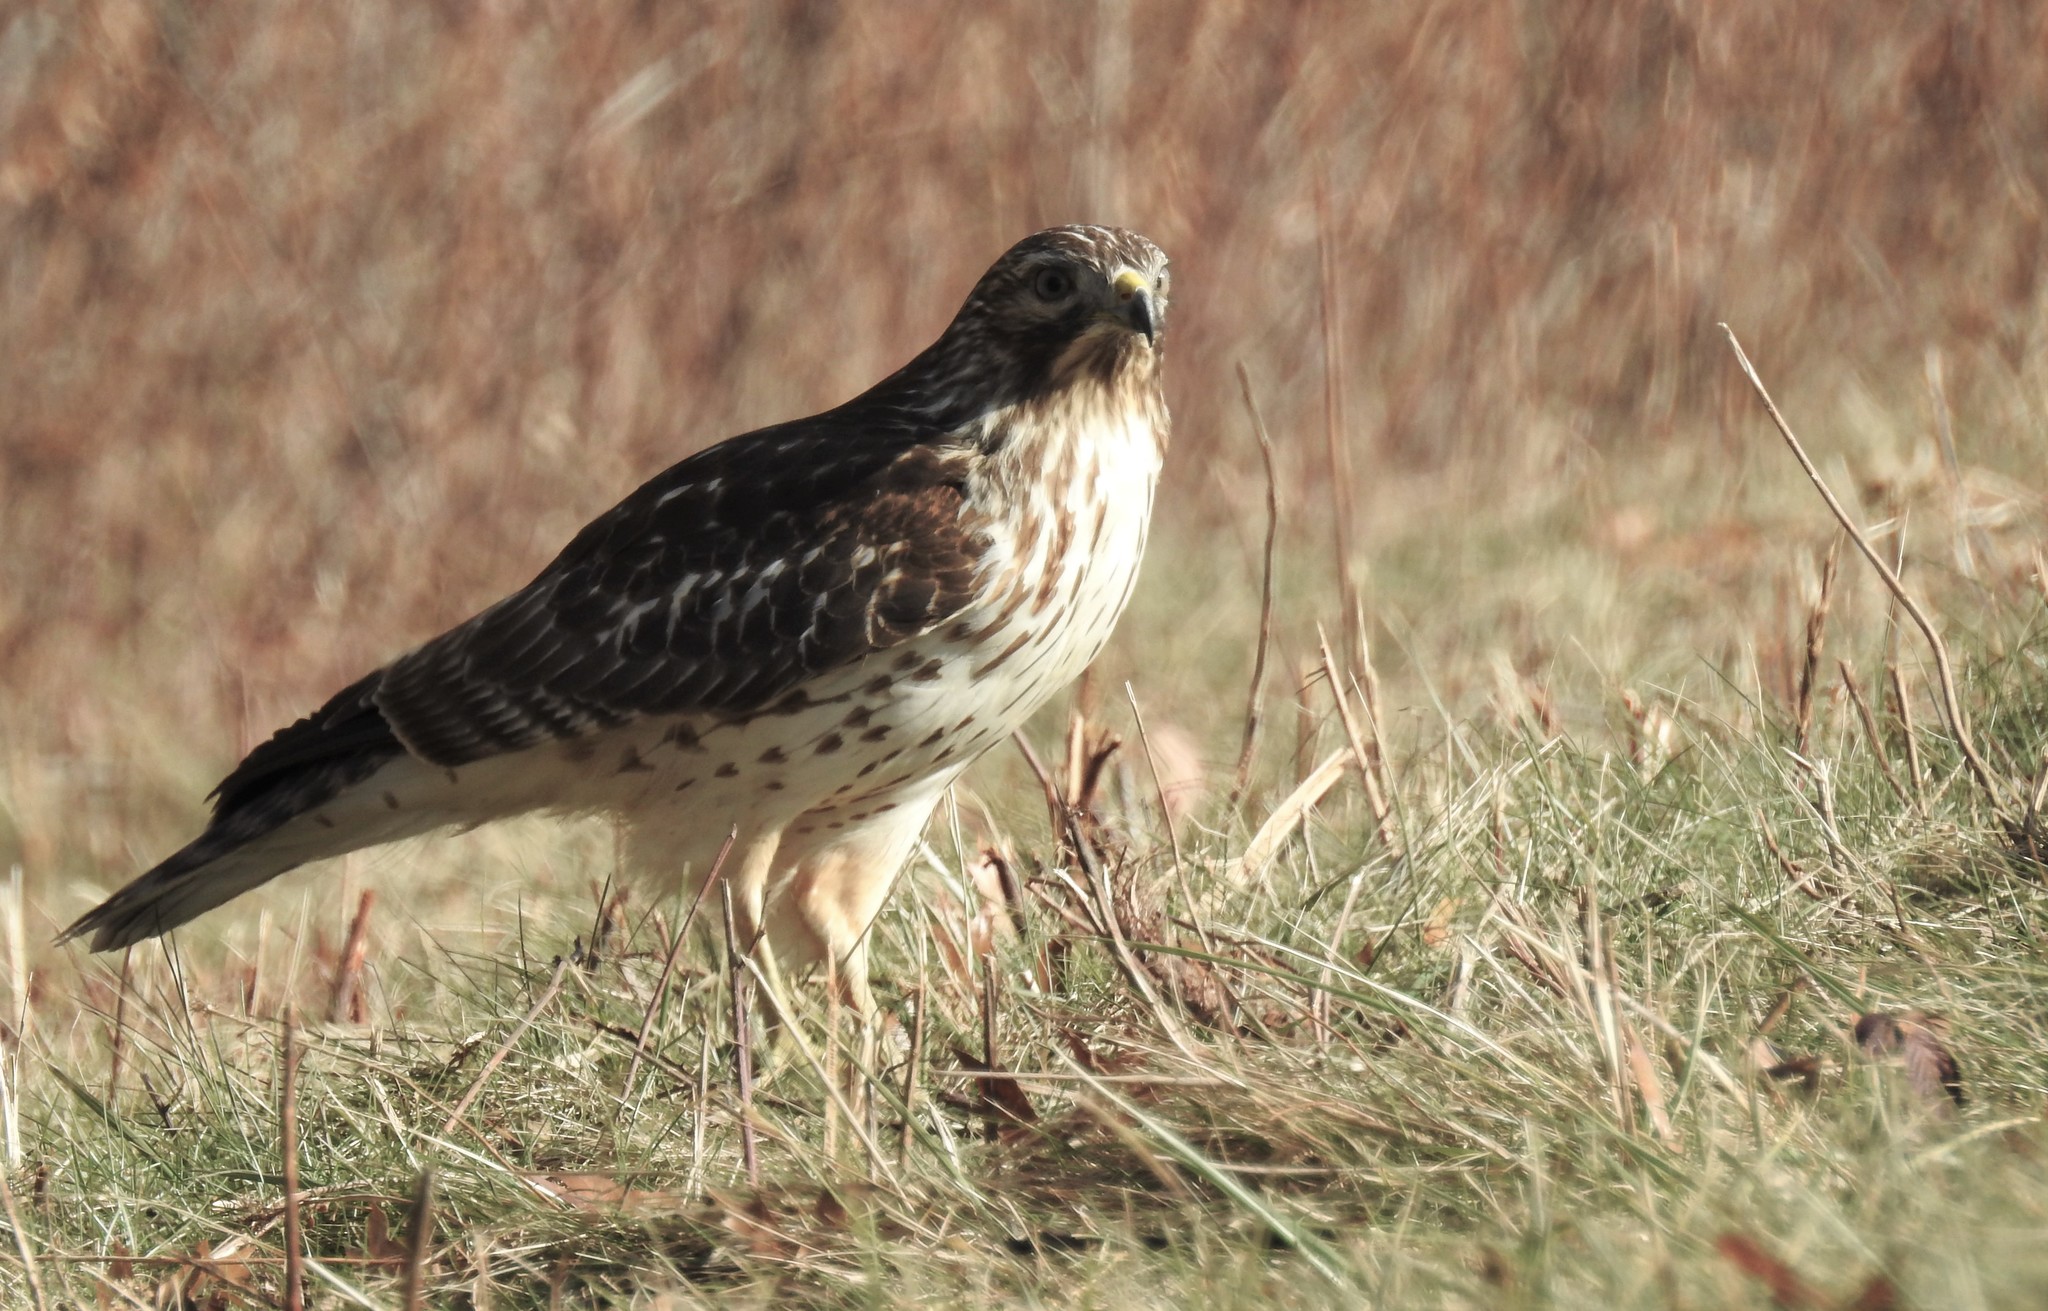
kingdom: Animalia
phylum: Chordata
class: Aves
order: Accipitriformes
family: Accipitridae
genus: Buteo
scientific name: Buteo lineatus
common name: Red-shouldered hawk
